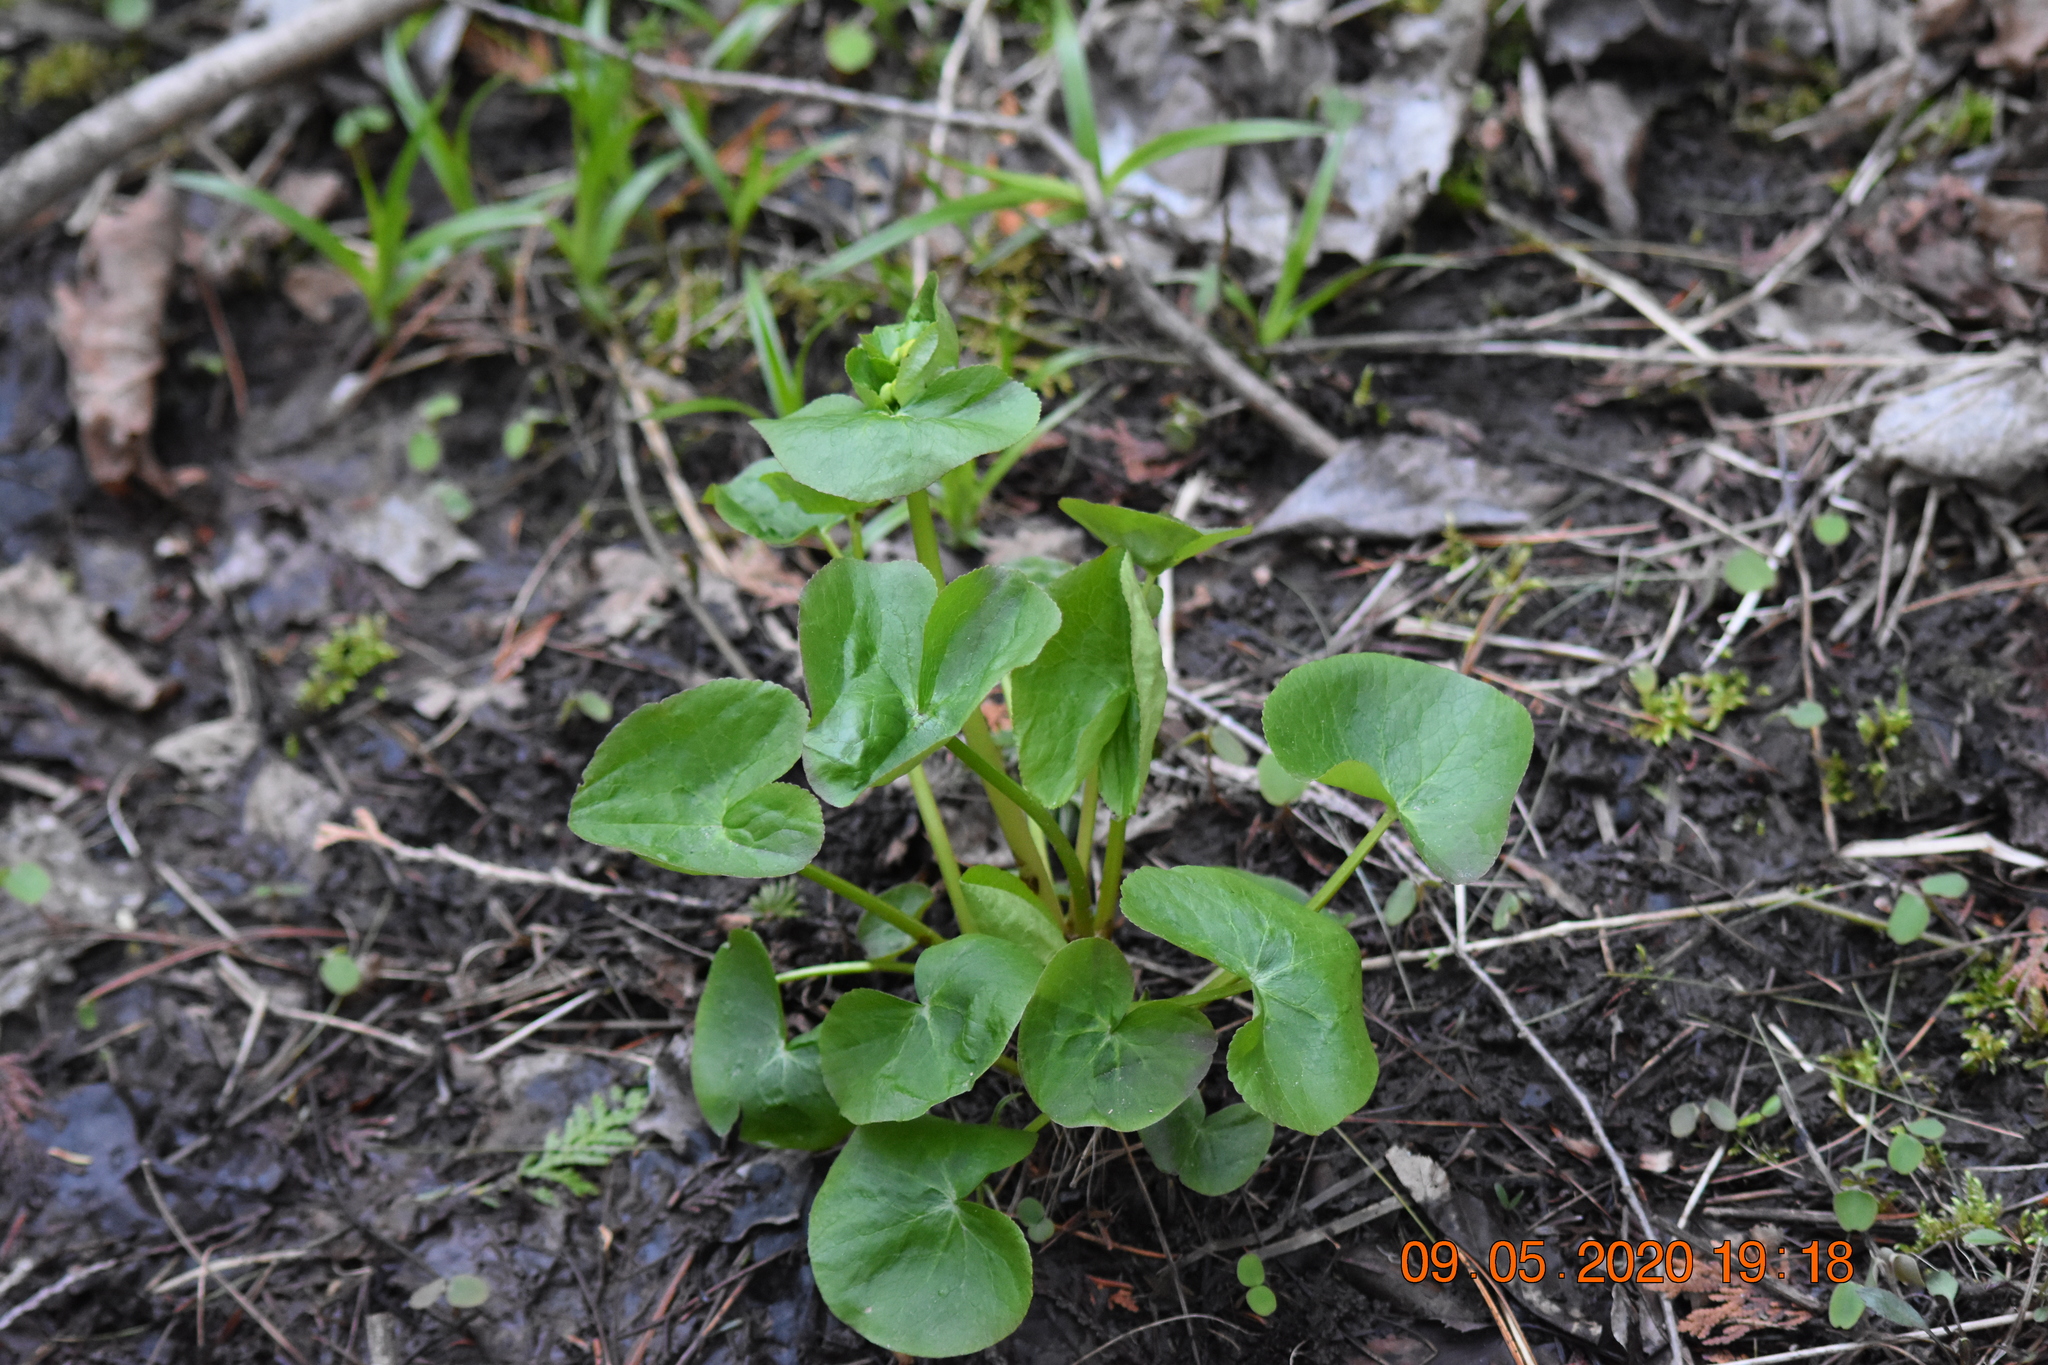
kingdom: Plantae
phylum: Tracheophyta
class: Magnoliopsida
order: Ranunculales
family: Ranunculaceae
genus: Caltha
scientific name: Caltha palustris
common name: Marsh marigold
